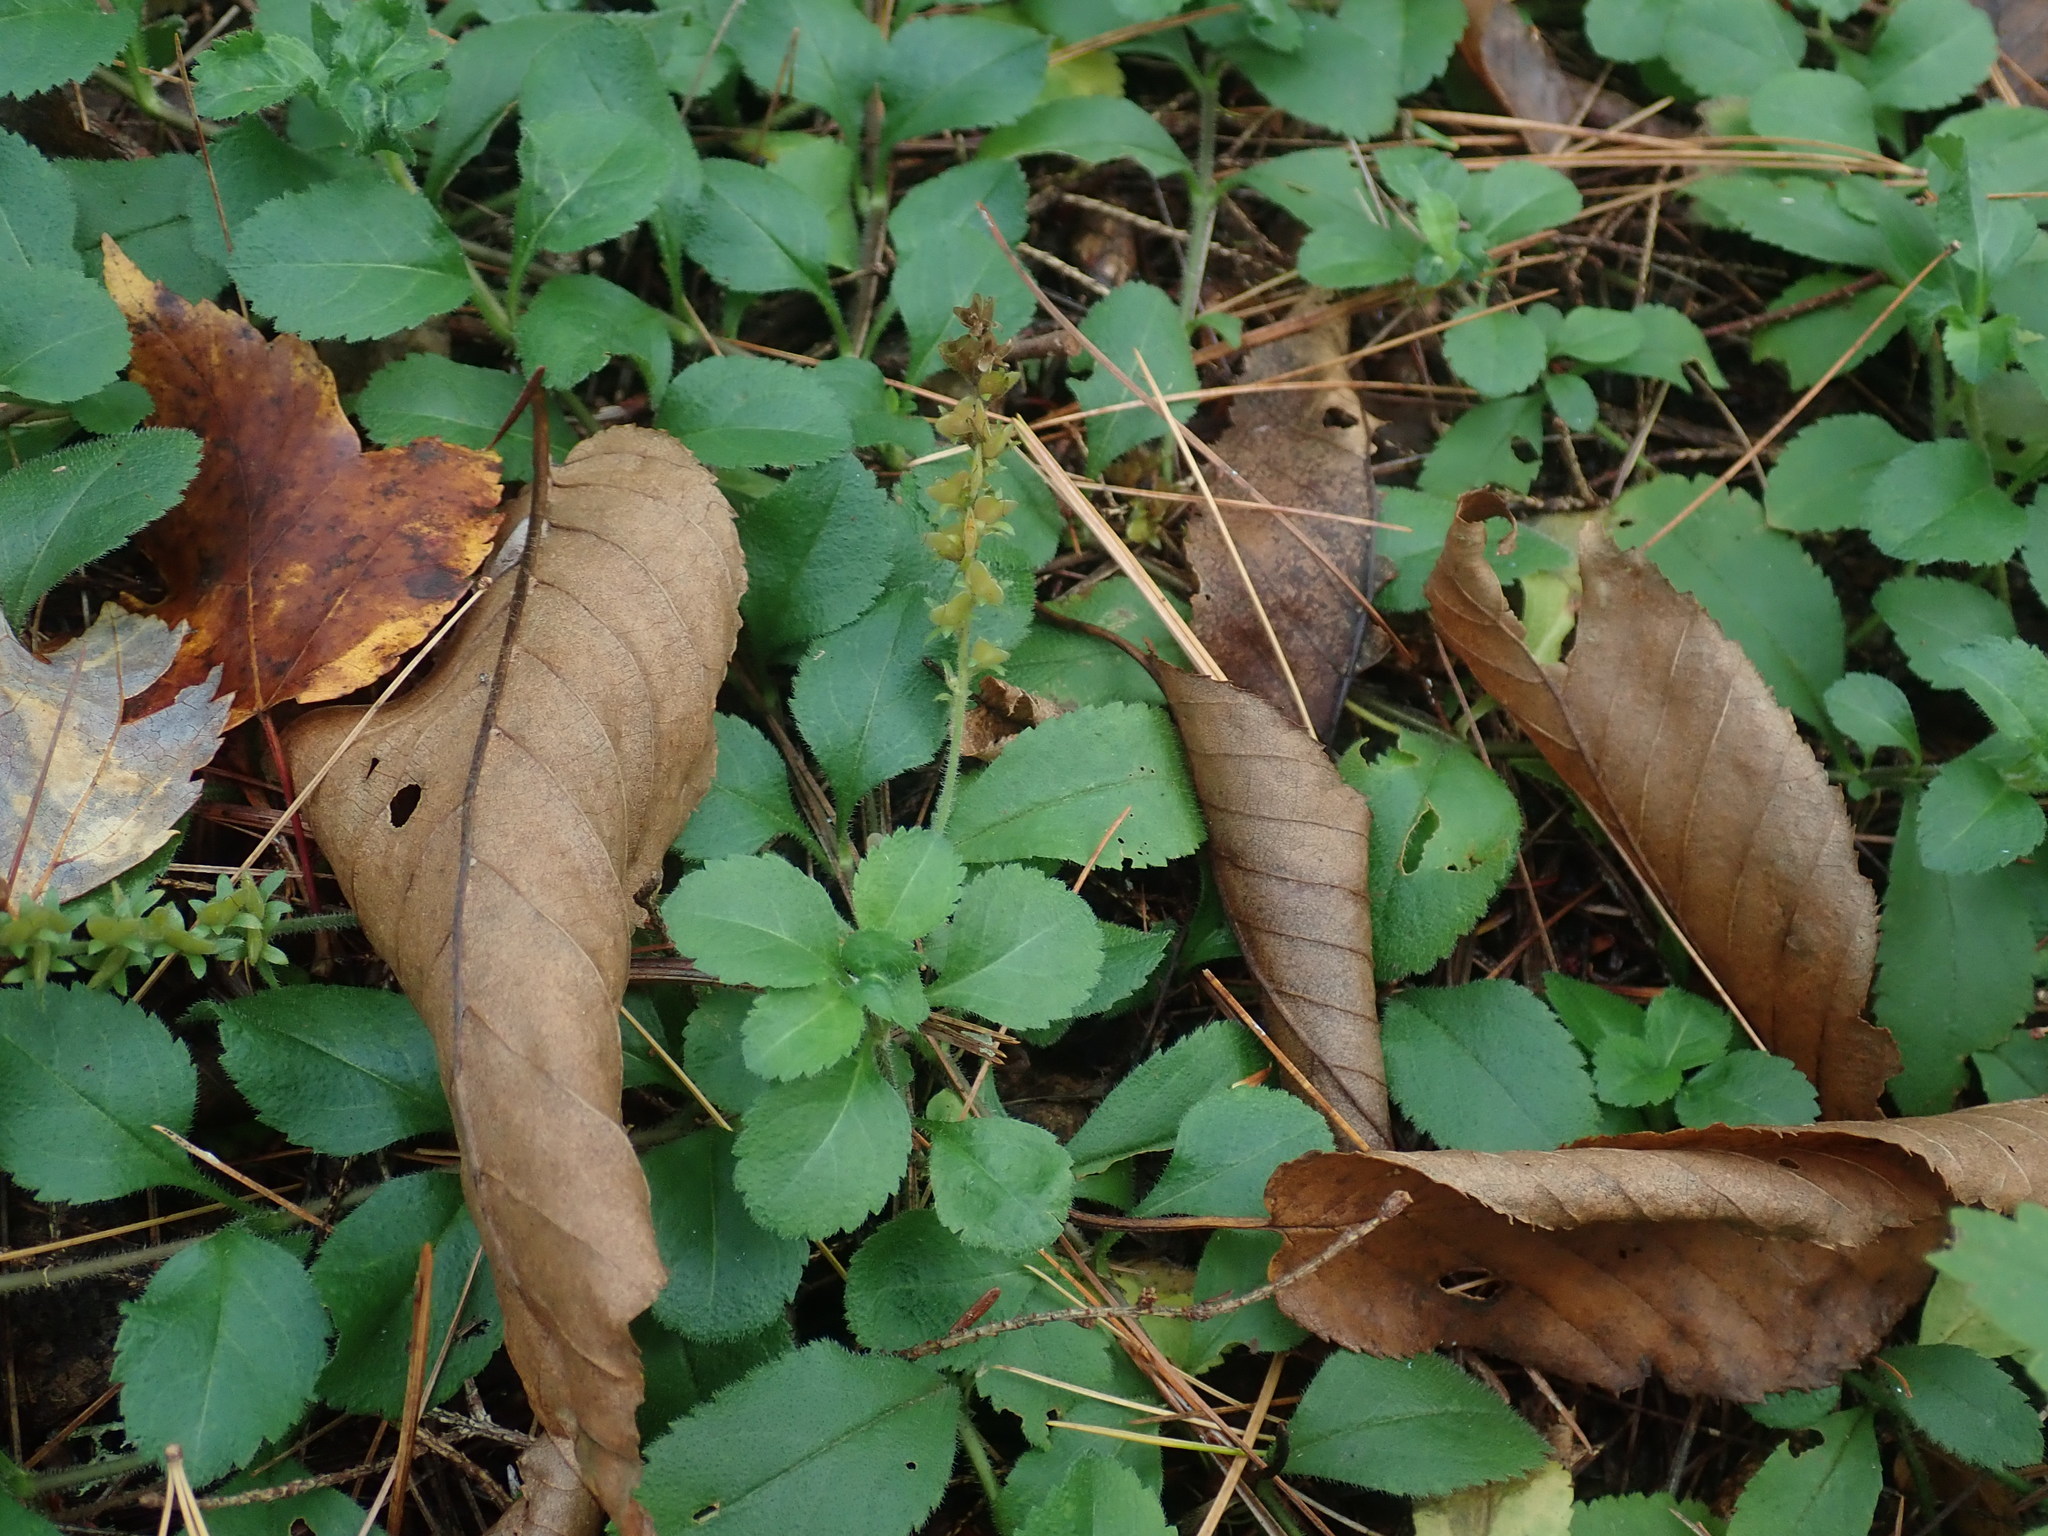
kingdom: Plantae
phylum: Tracheophyta
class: Magnoliopsida
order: Lamiales
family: Plantaginaceae
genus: Veronica
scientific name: Veronica officinalis
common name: Common speedwell
